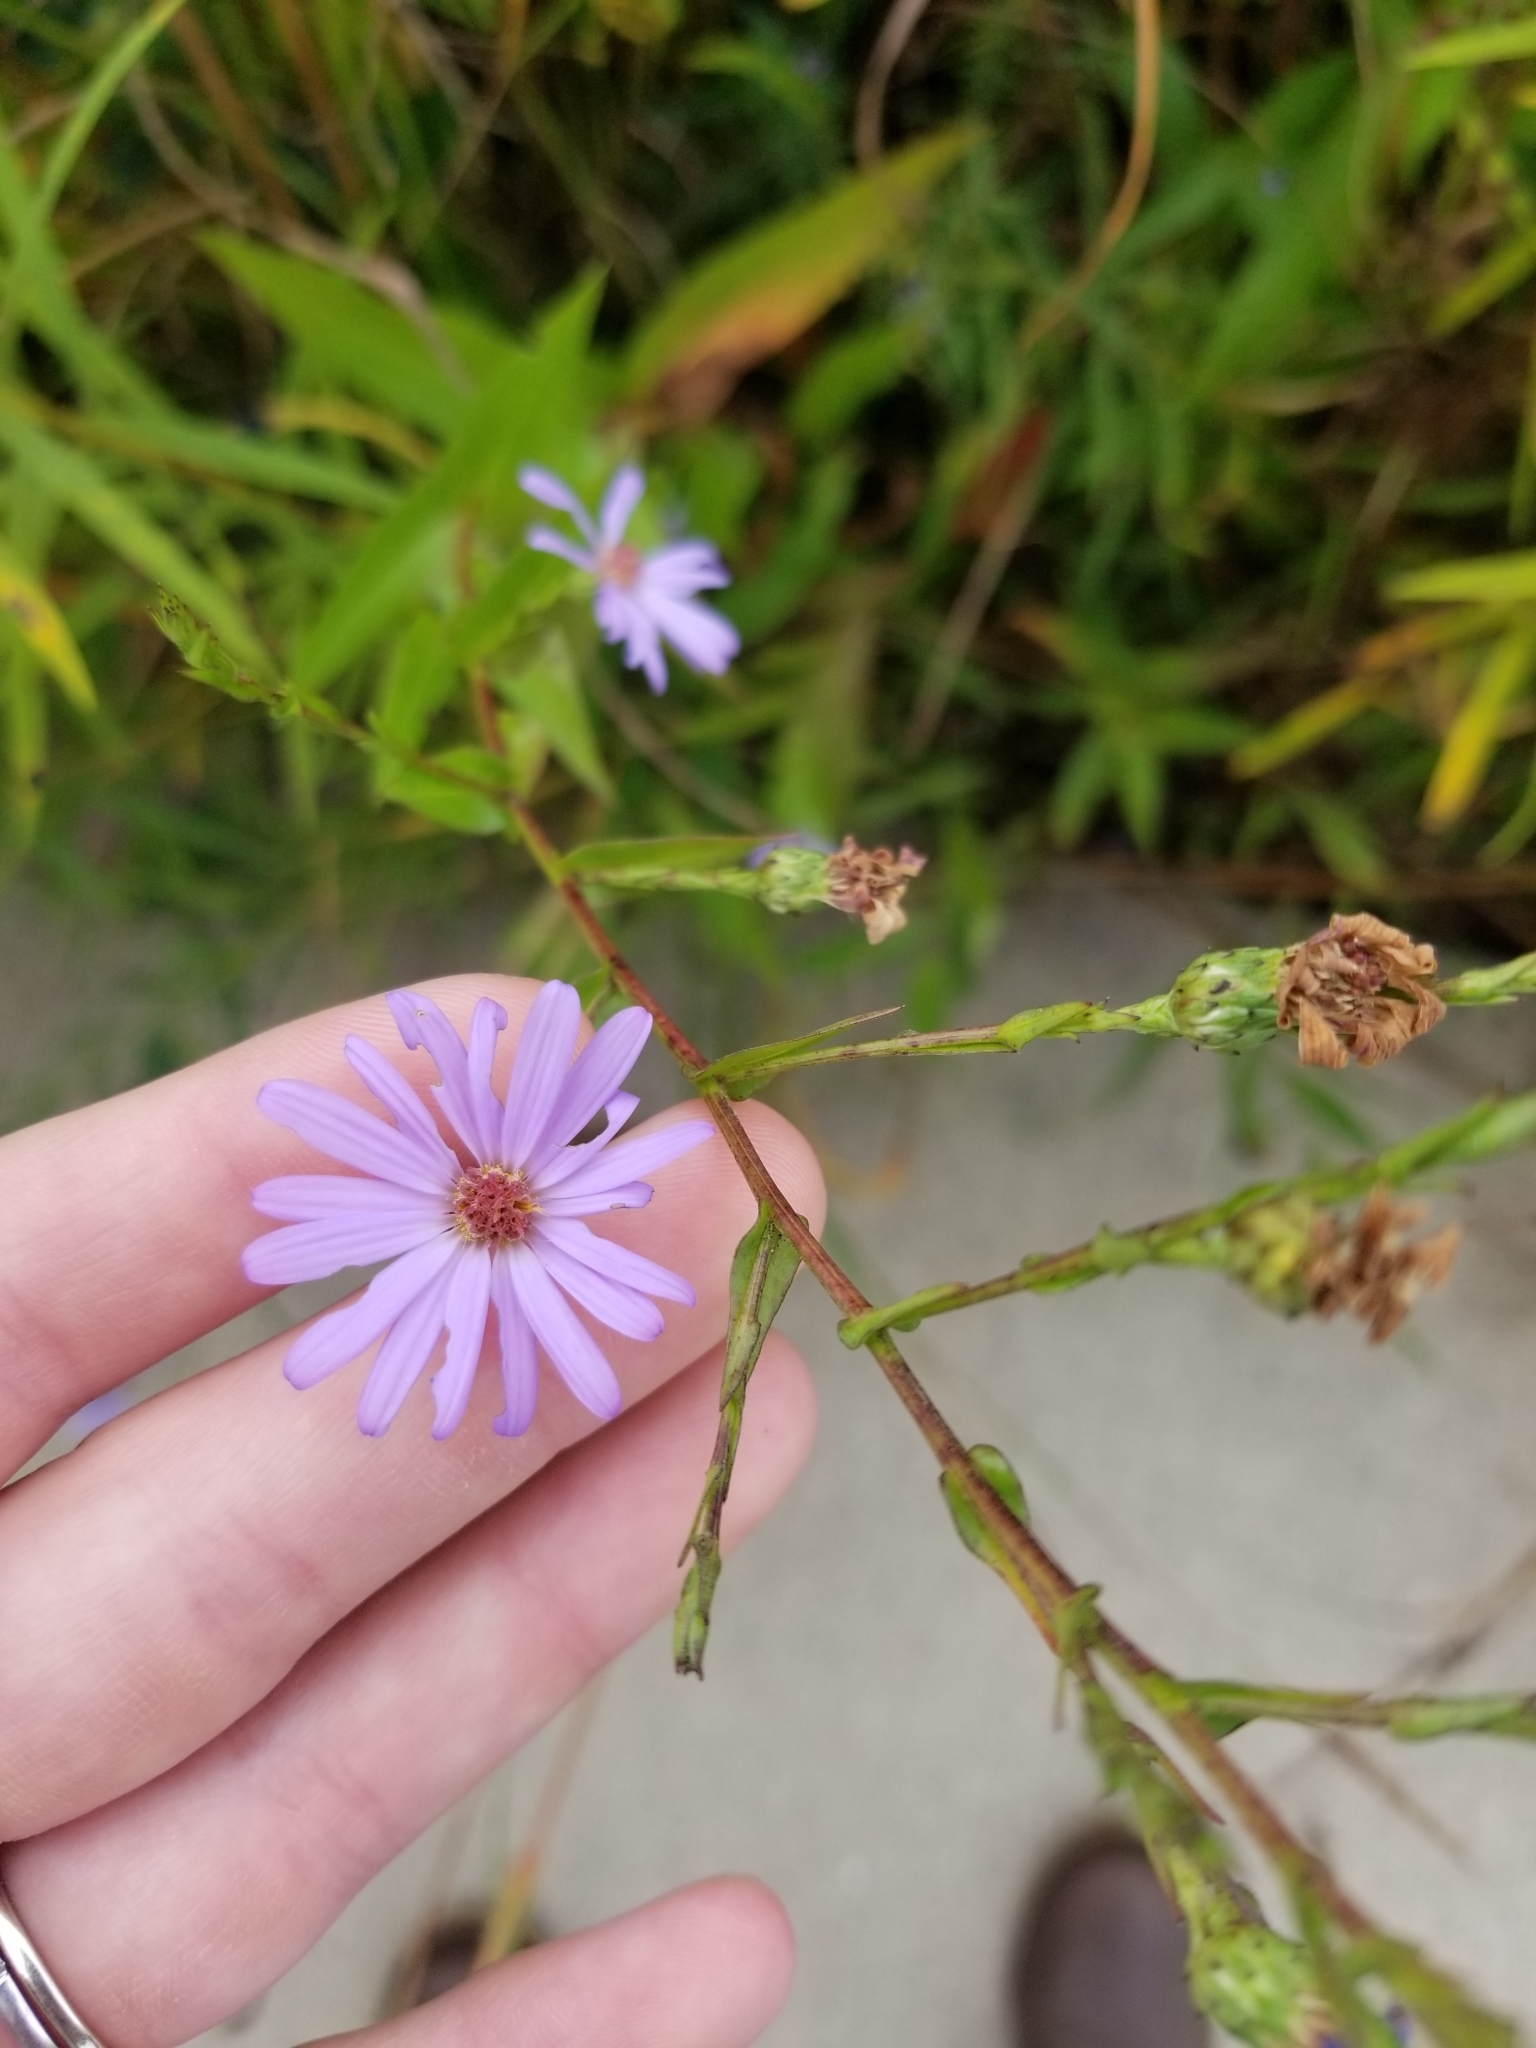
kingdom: Plantae
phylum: Tracheophyta
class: Magnoliopsida
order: Asterales
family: Asteraceae
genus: Symphyotrichum
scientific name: Symphyotrichum laeve
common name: Glaucous aster
